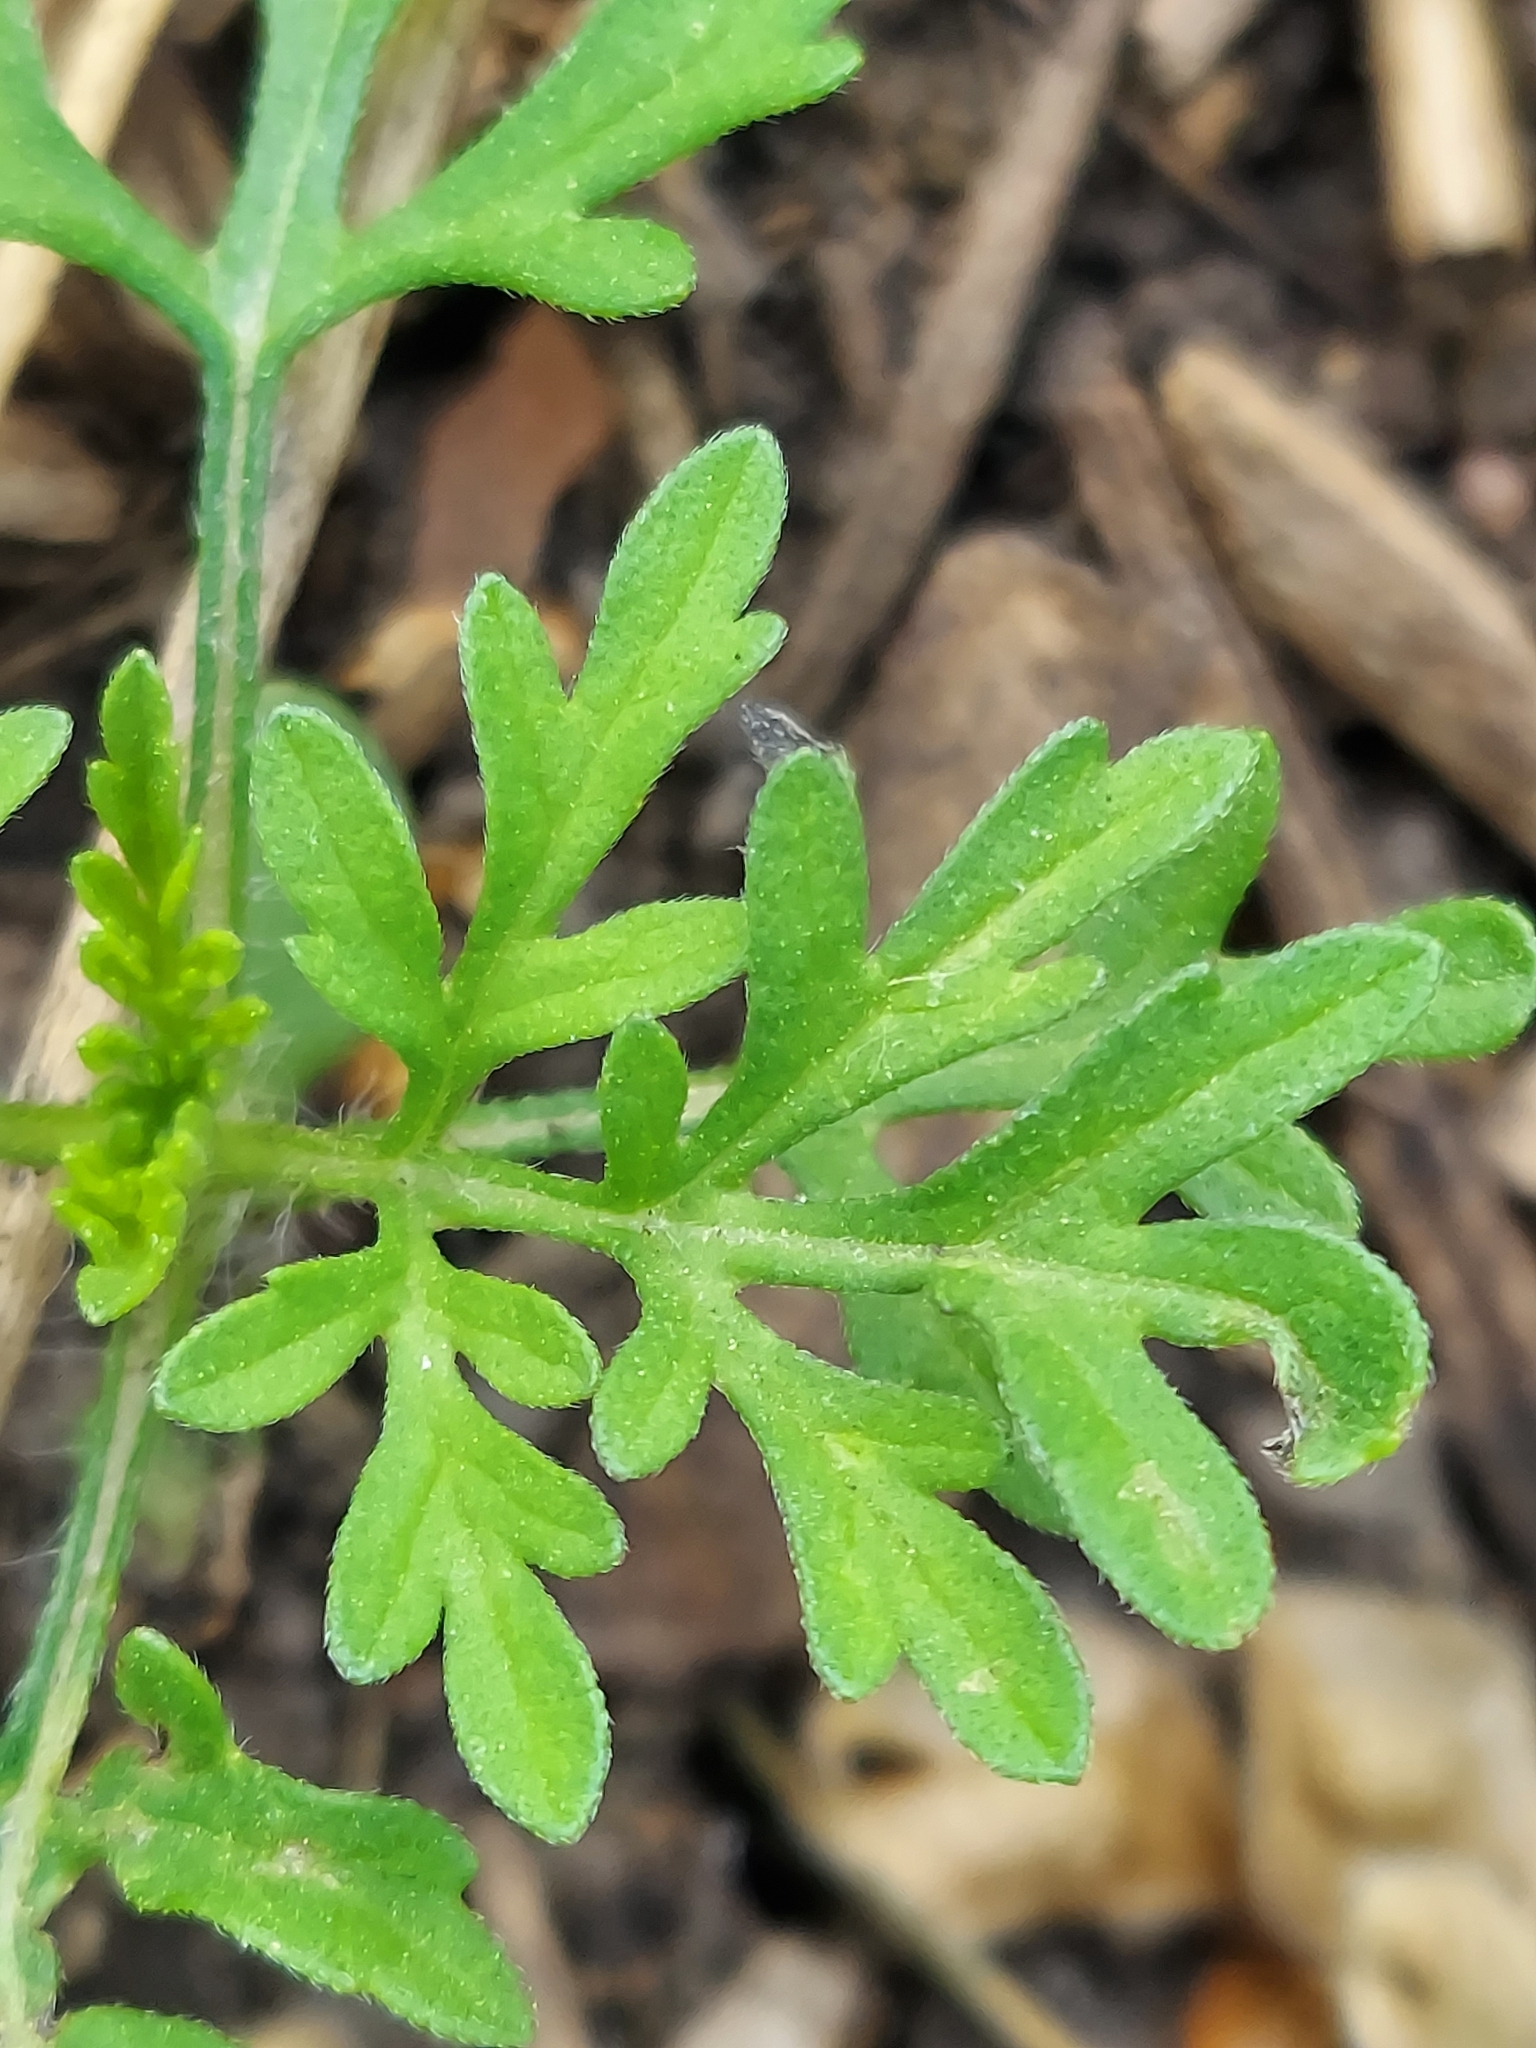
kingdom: Plantae
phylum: Tracheophyta
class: Magnoliopsida
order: Asterales
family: Asteraceae
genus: Ambrosia
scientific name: Ambrosia artemisiifolia
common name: Annual ragweed
